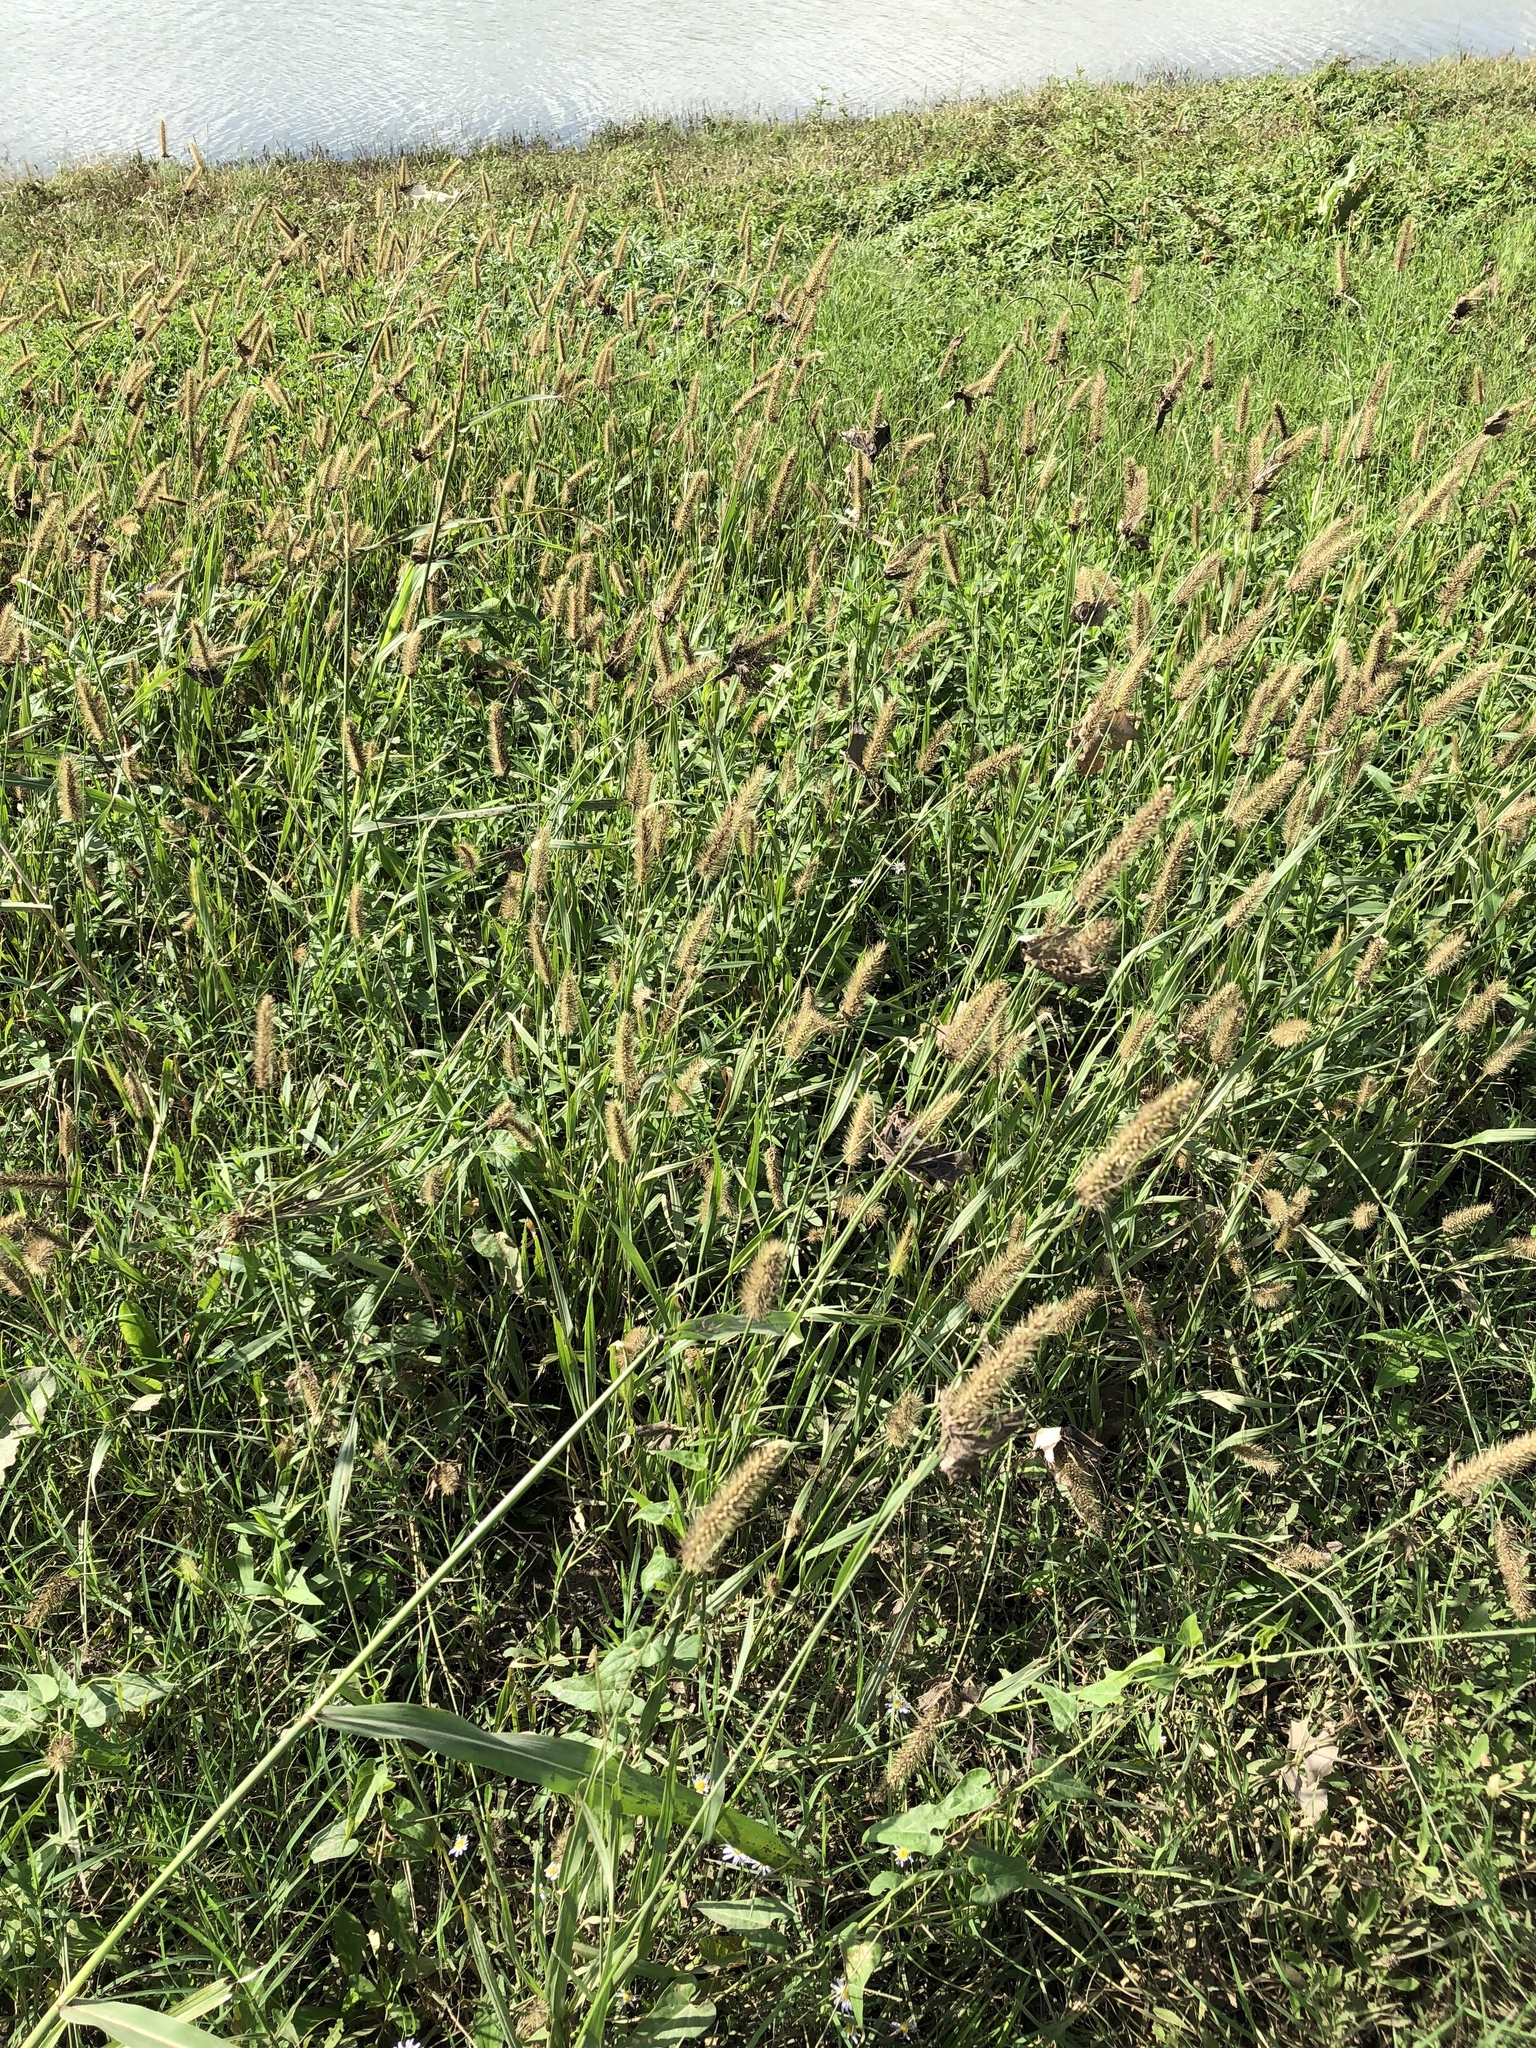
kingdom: Plantae
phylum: Tracheophyta
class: Liliopsida
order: Poales
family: Poaceae
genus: Setaria
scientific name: Setaria parviflora
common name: Knotroot bristle-grass
